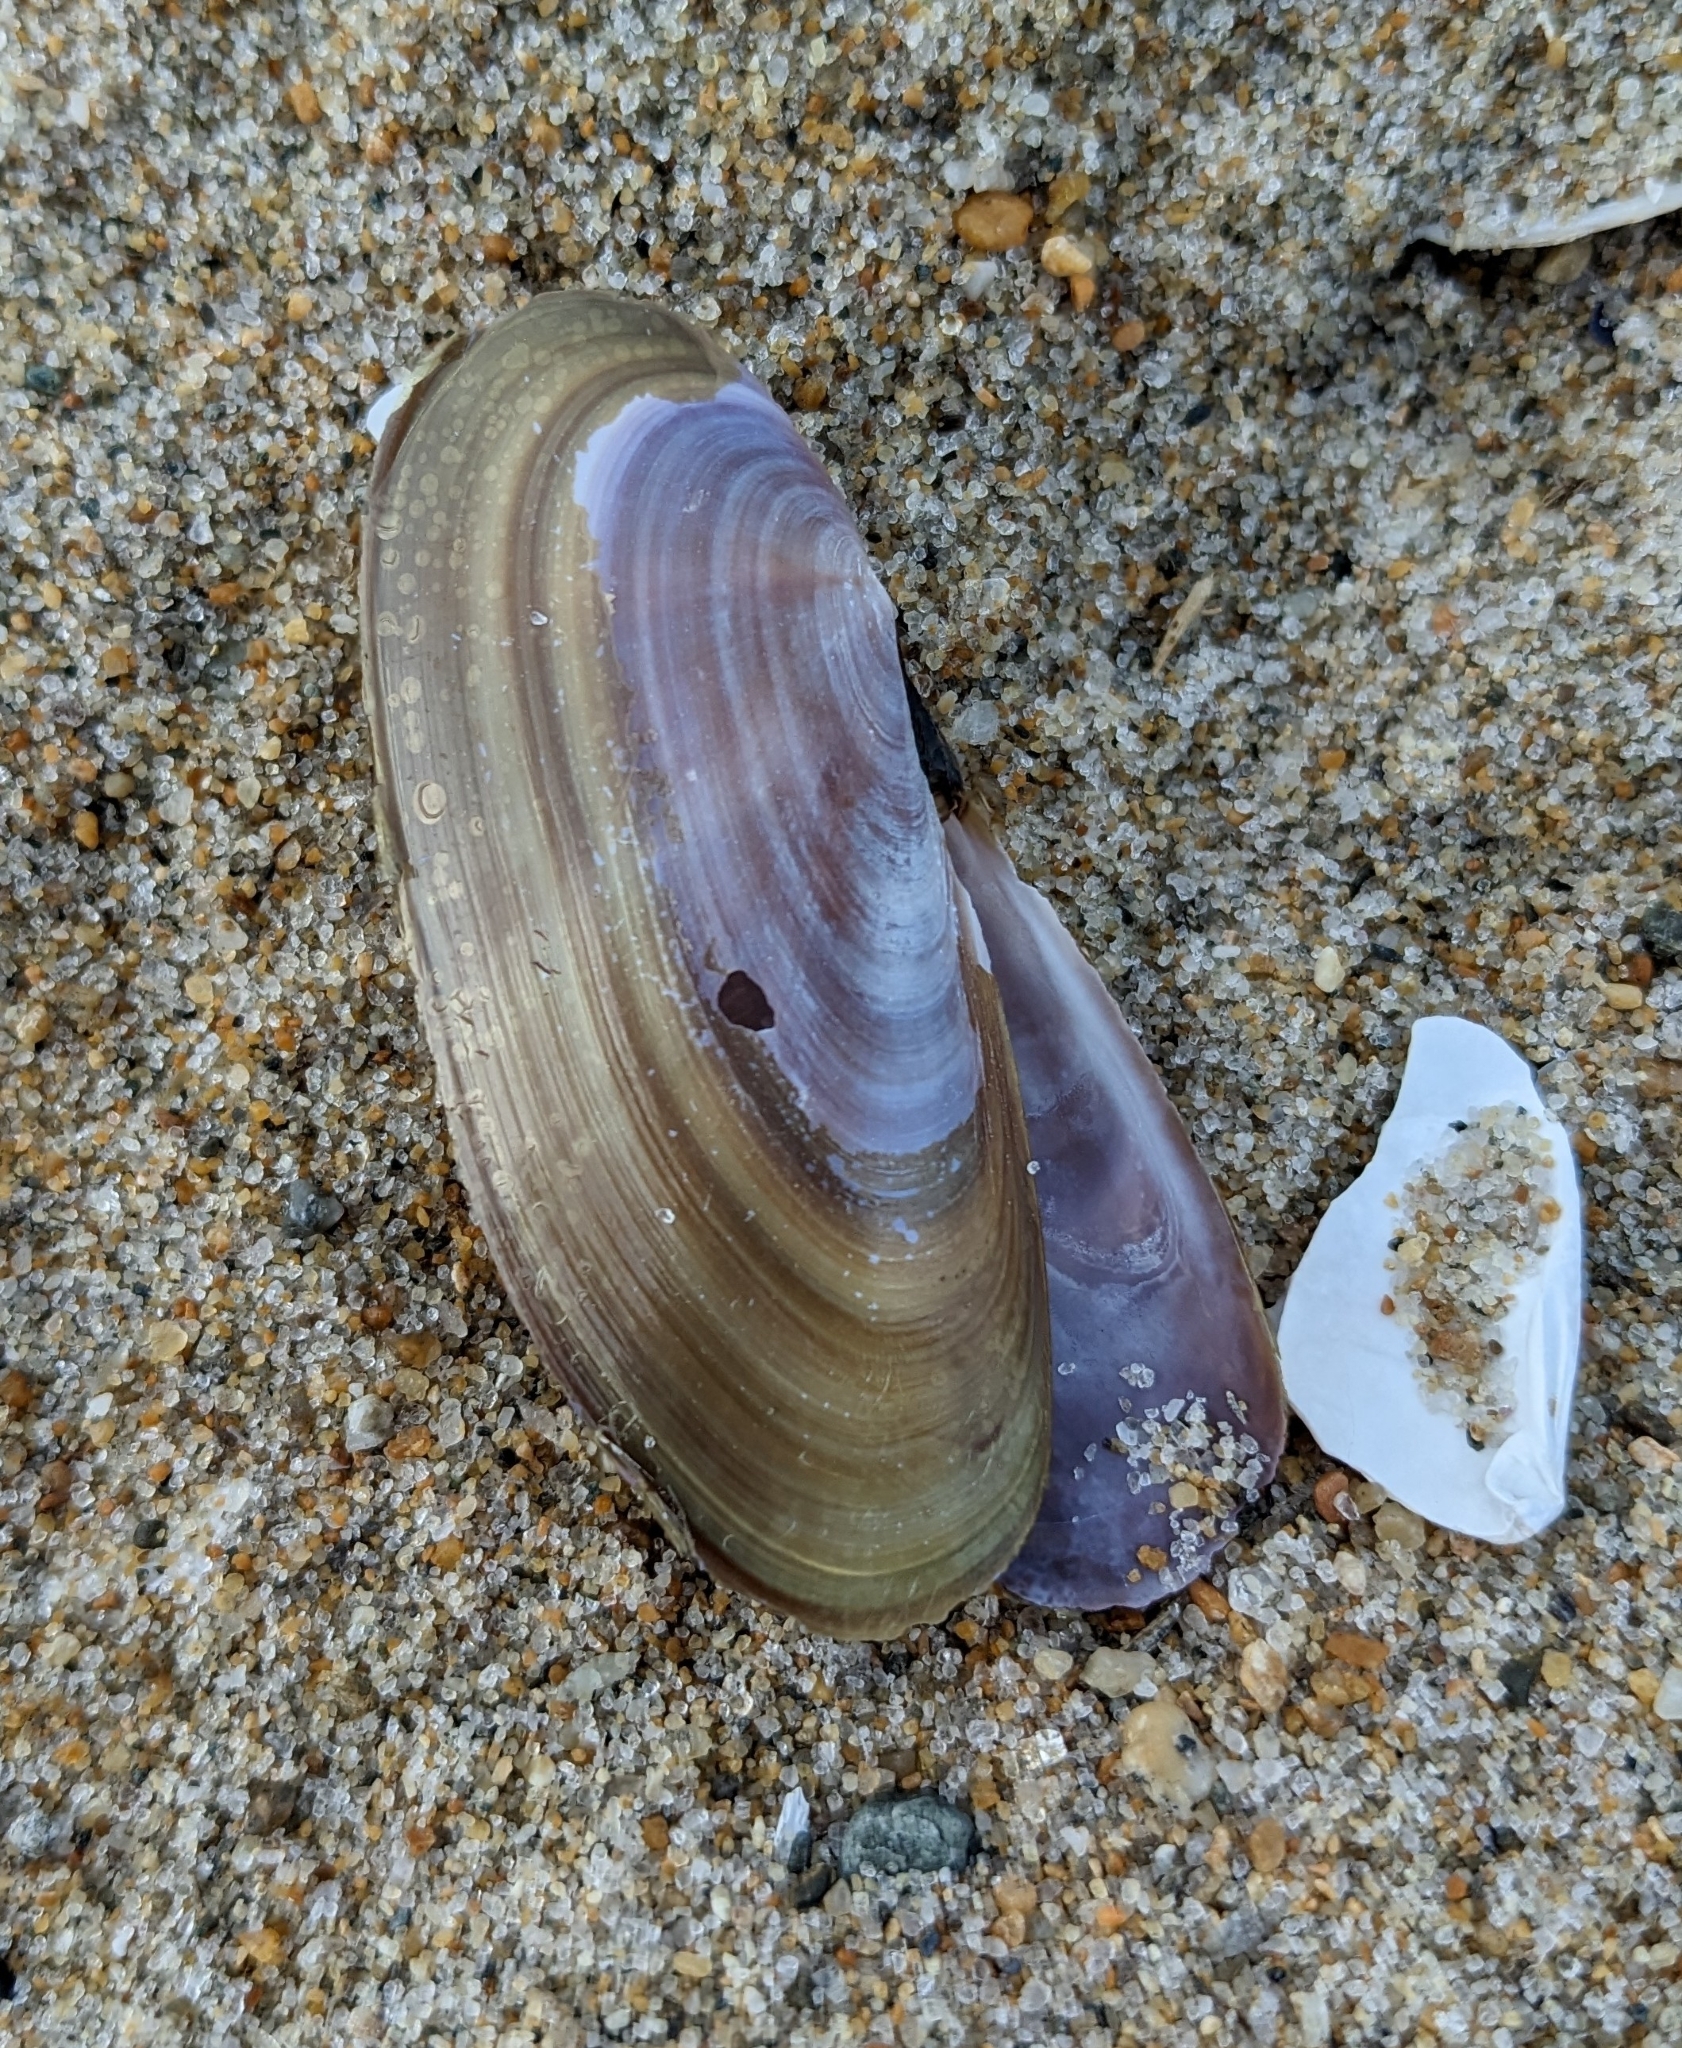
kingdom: Animalia
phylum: Mollusca
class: Bivalvia
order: Adapedonta
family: Pharidae
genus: Siliqua
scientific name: Siliqua costata
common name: Atlantic razor
